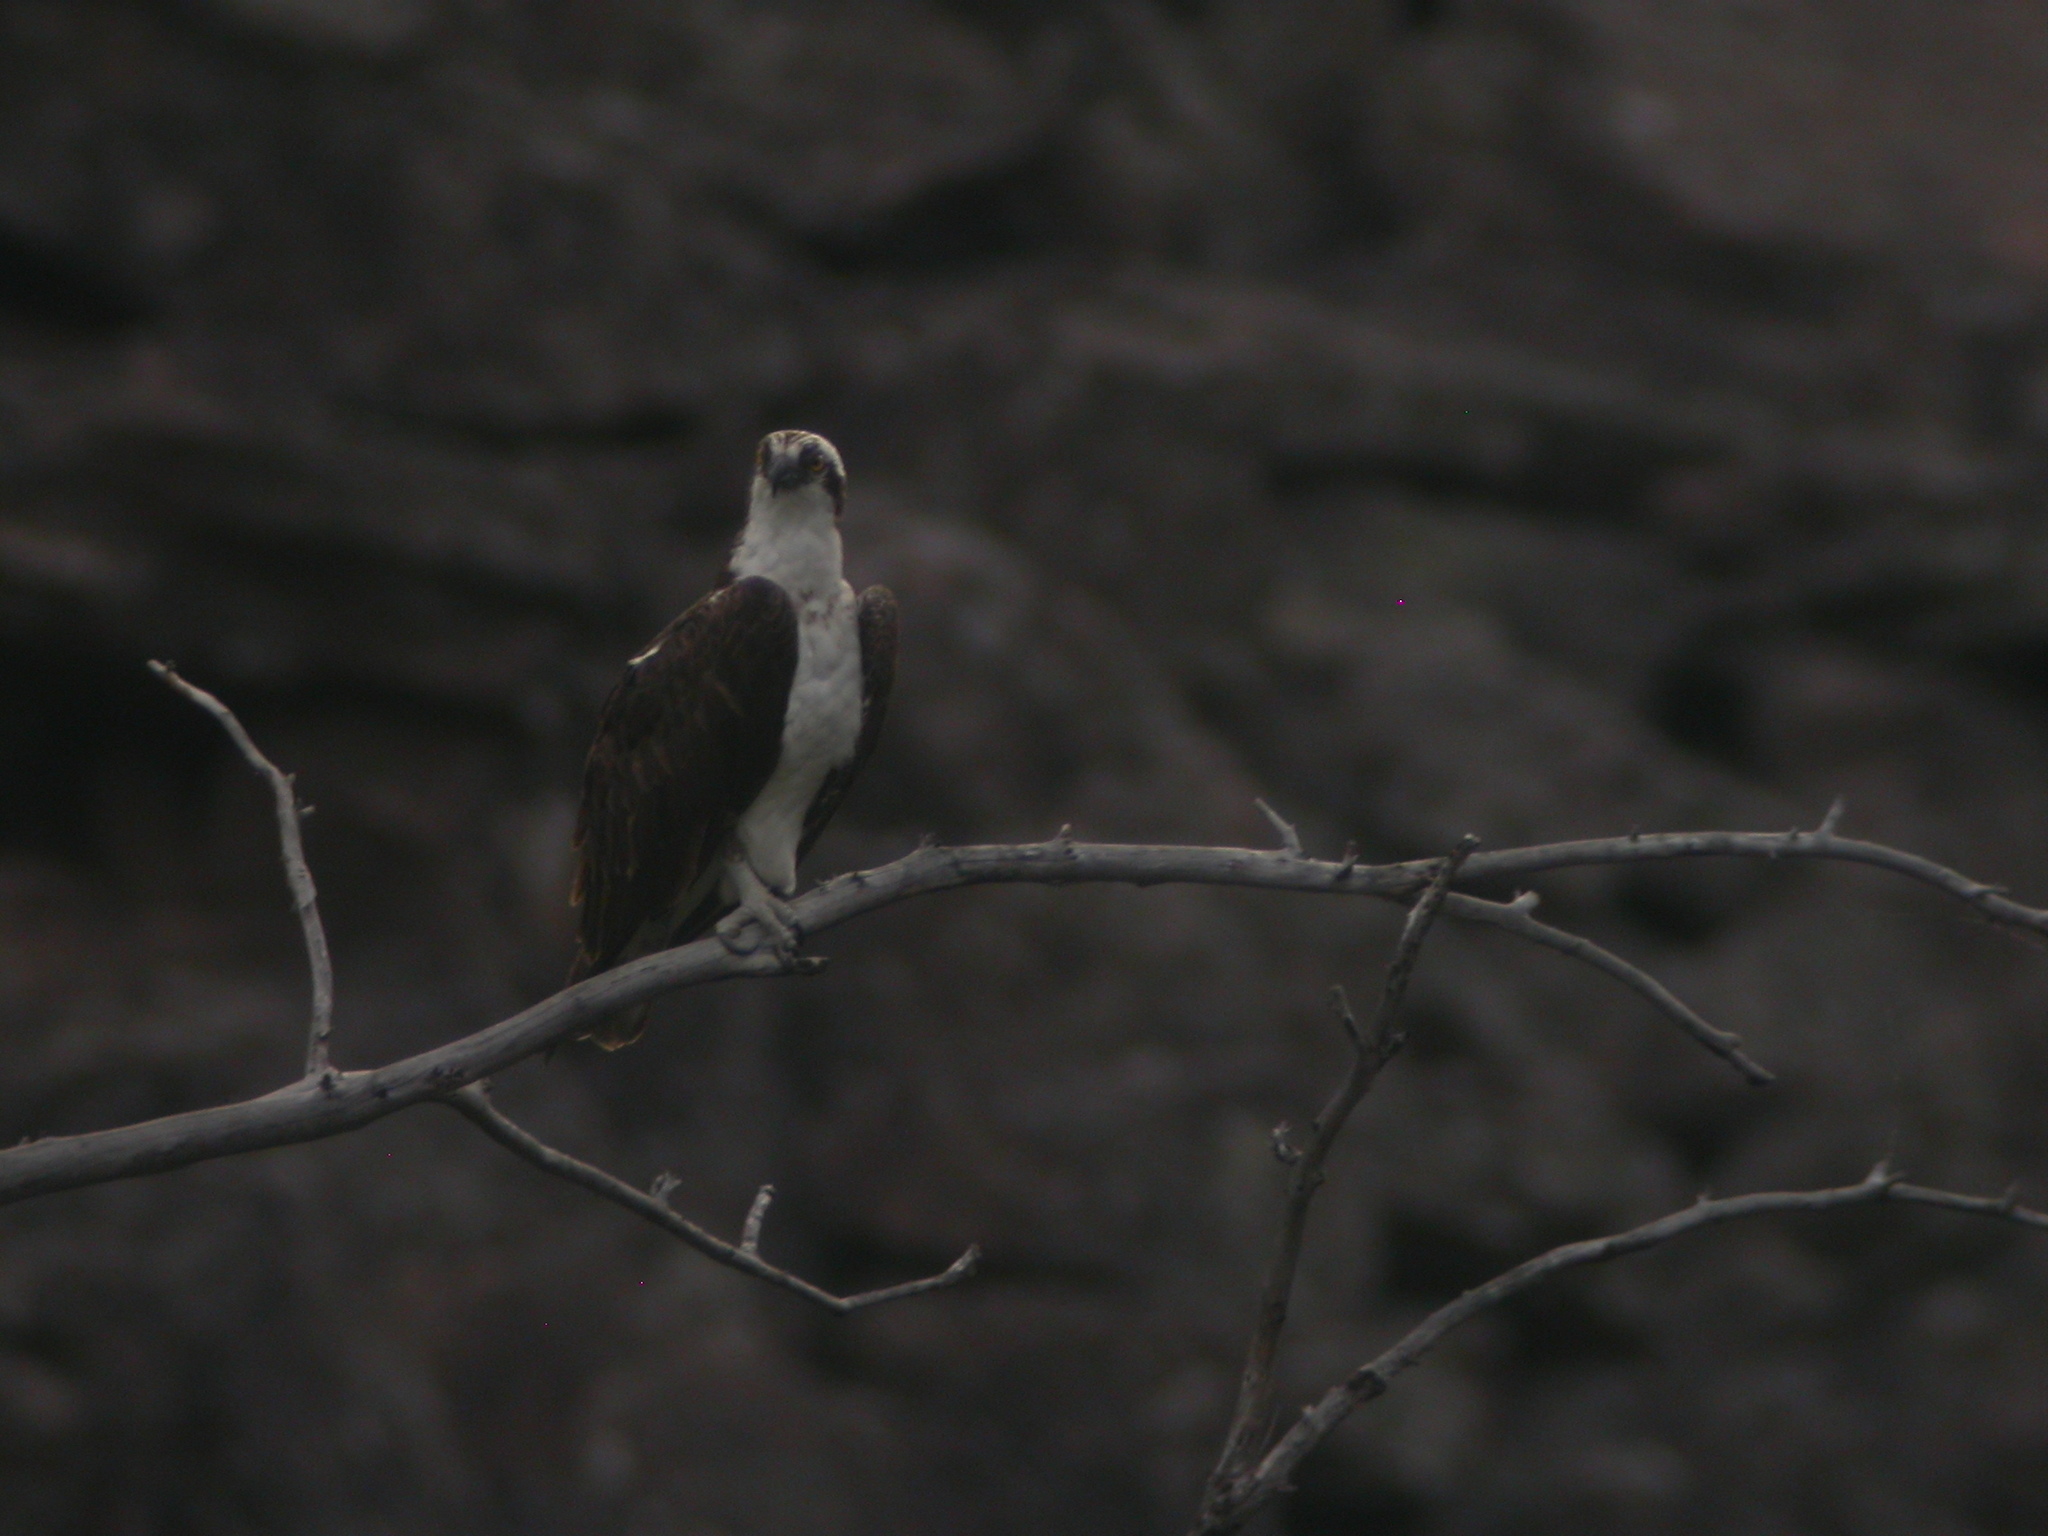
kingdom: Animalia
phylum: Chordata
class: Aves
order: Accipitriformes
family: Pandionidae
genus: Pandion
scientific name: Pandion haliaetus
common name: Osprey
